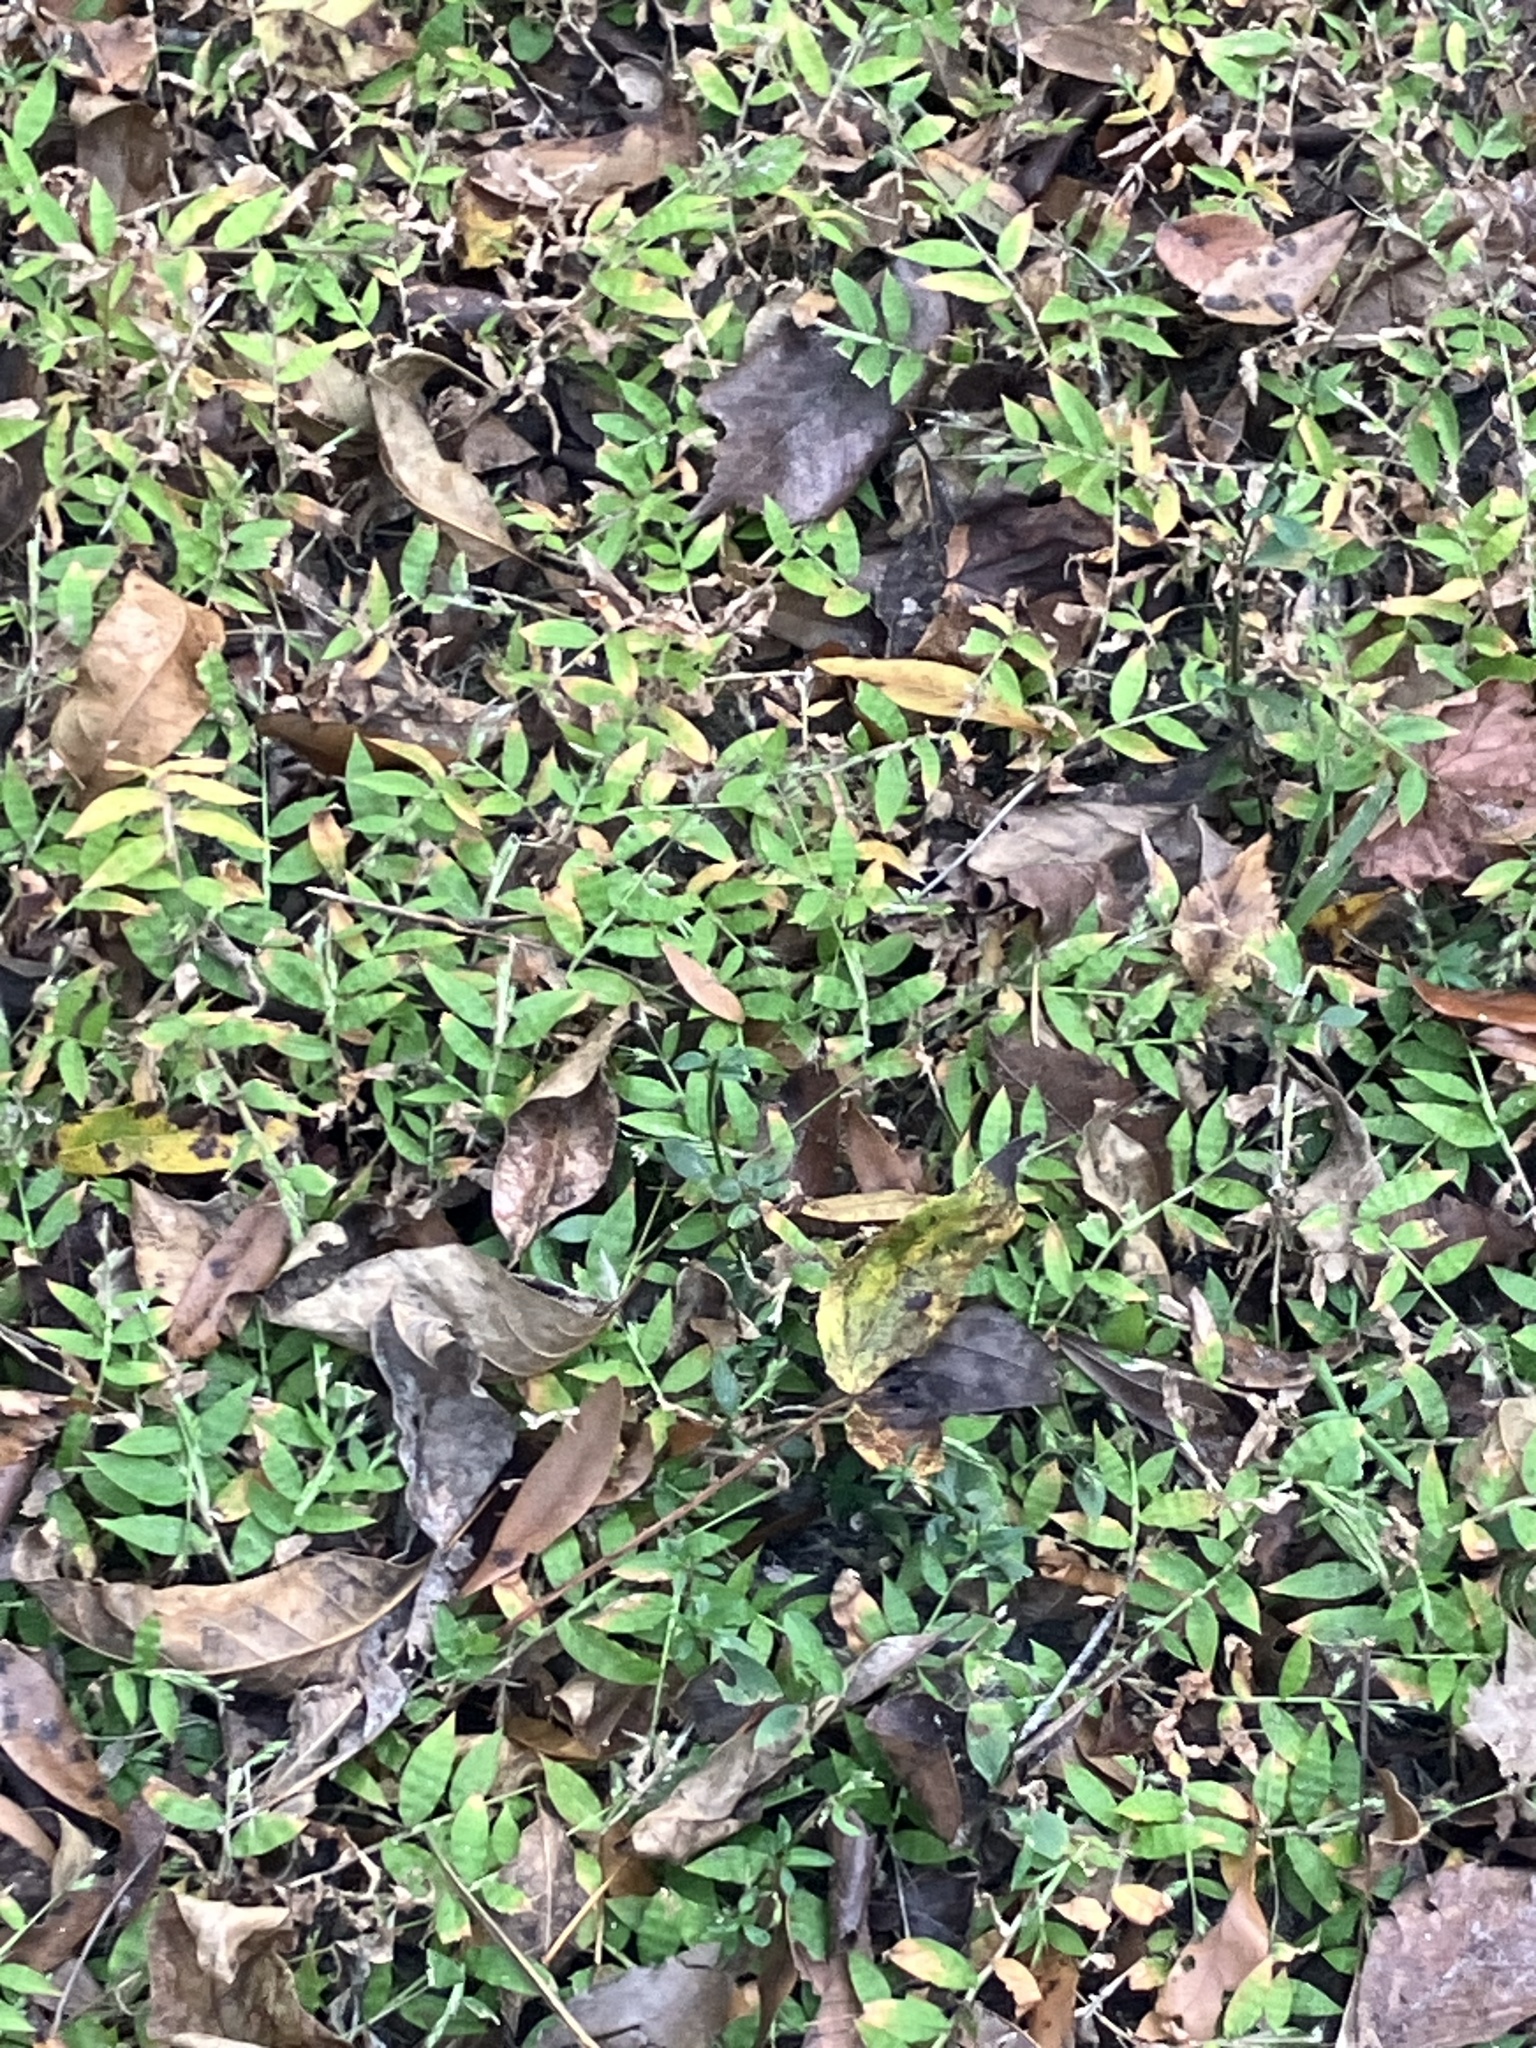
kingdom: Plantae
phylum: Tracheophyta
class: Liliopsida
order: Poales
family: Poaceae
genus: Oplismenus
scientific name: Oplismenus
